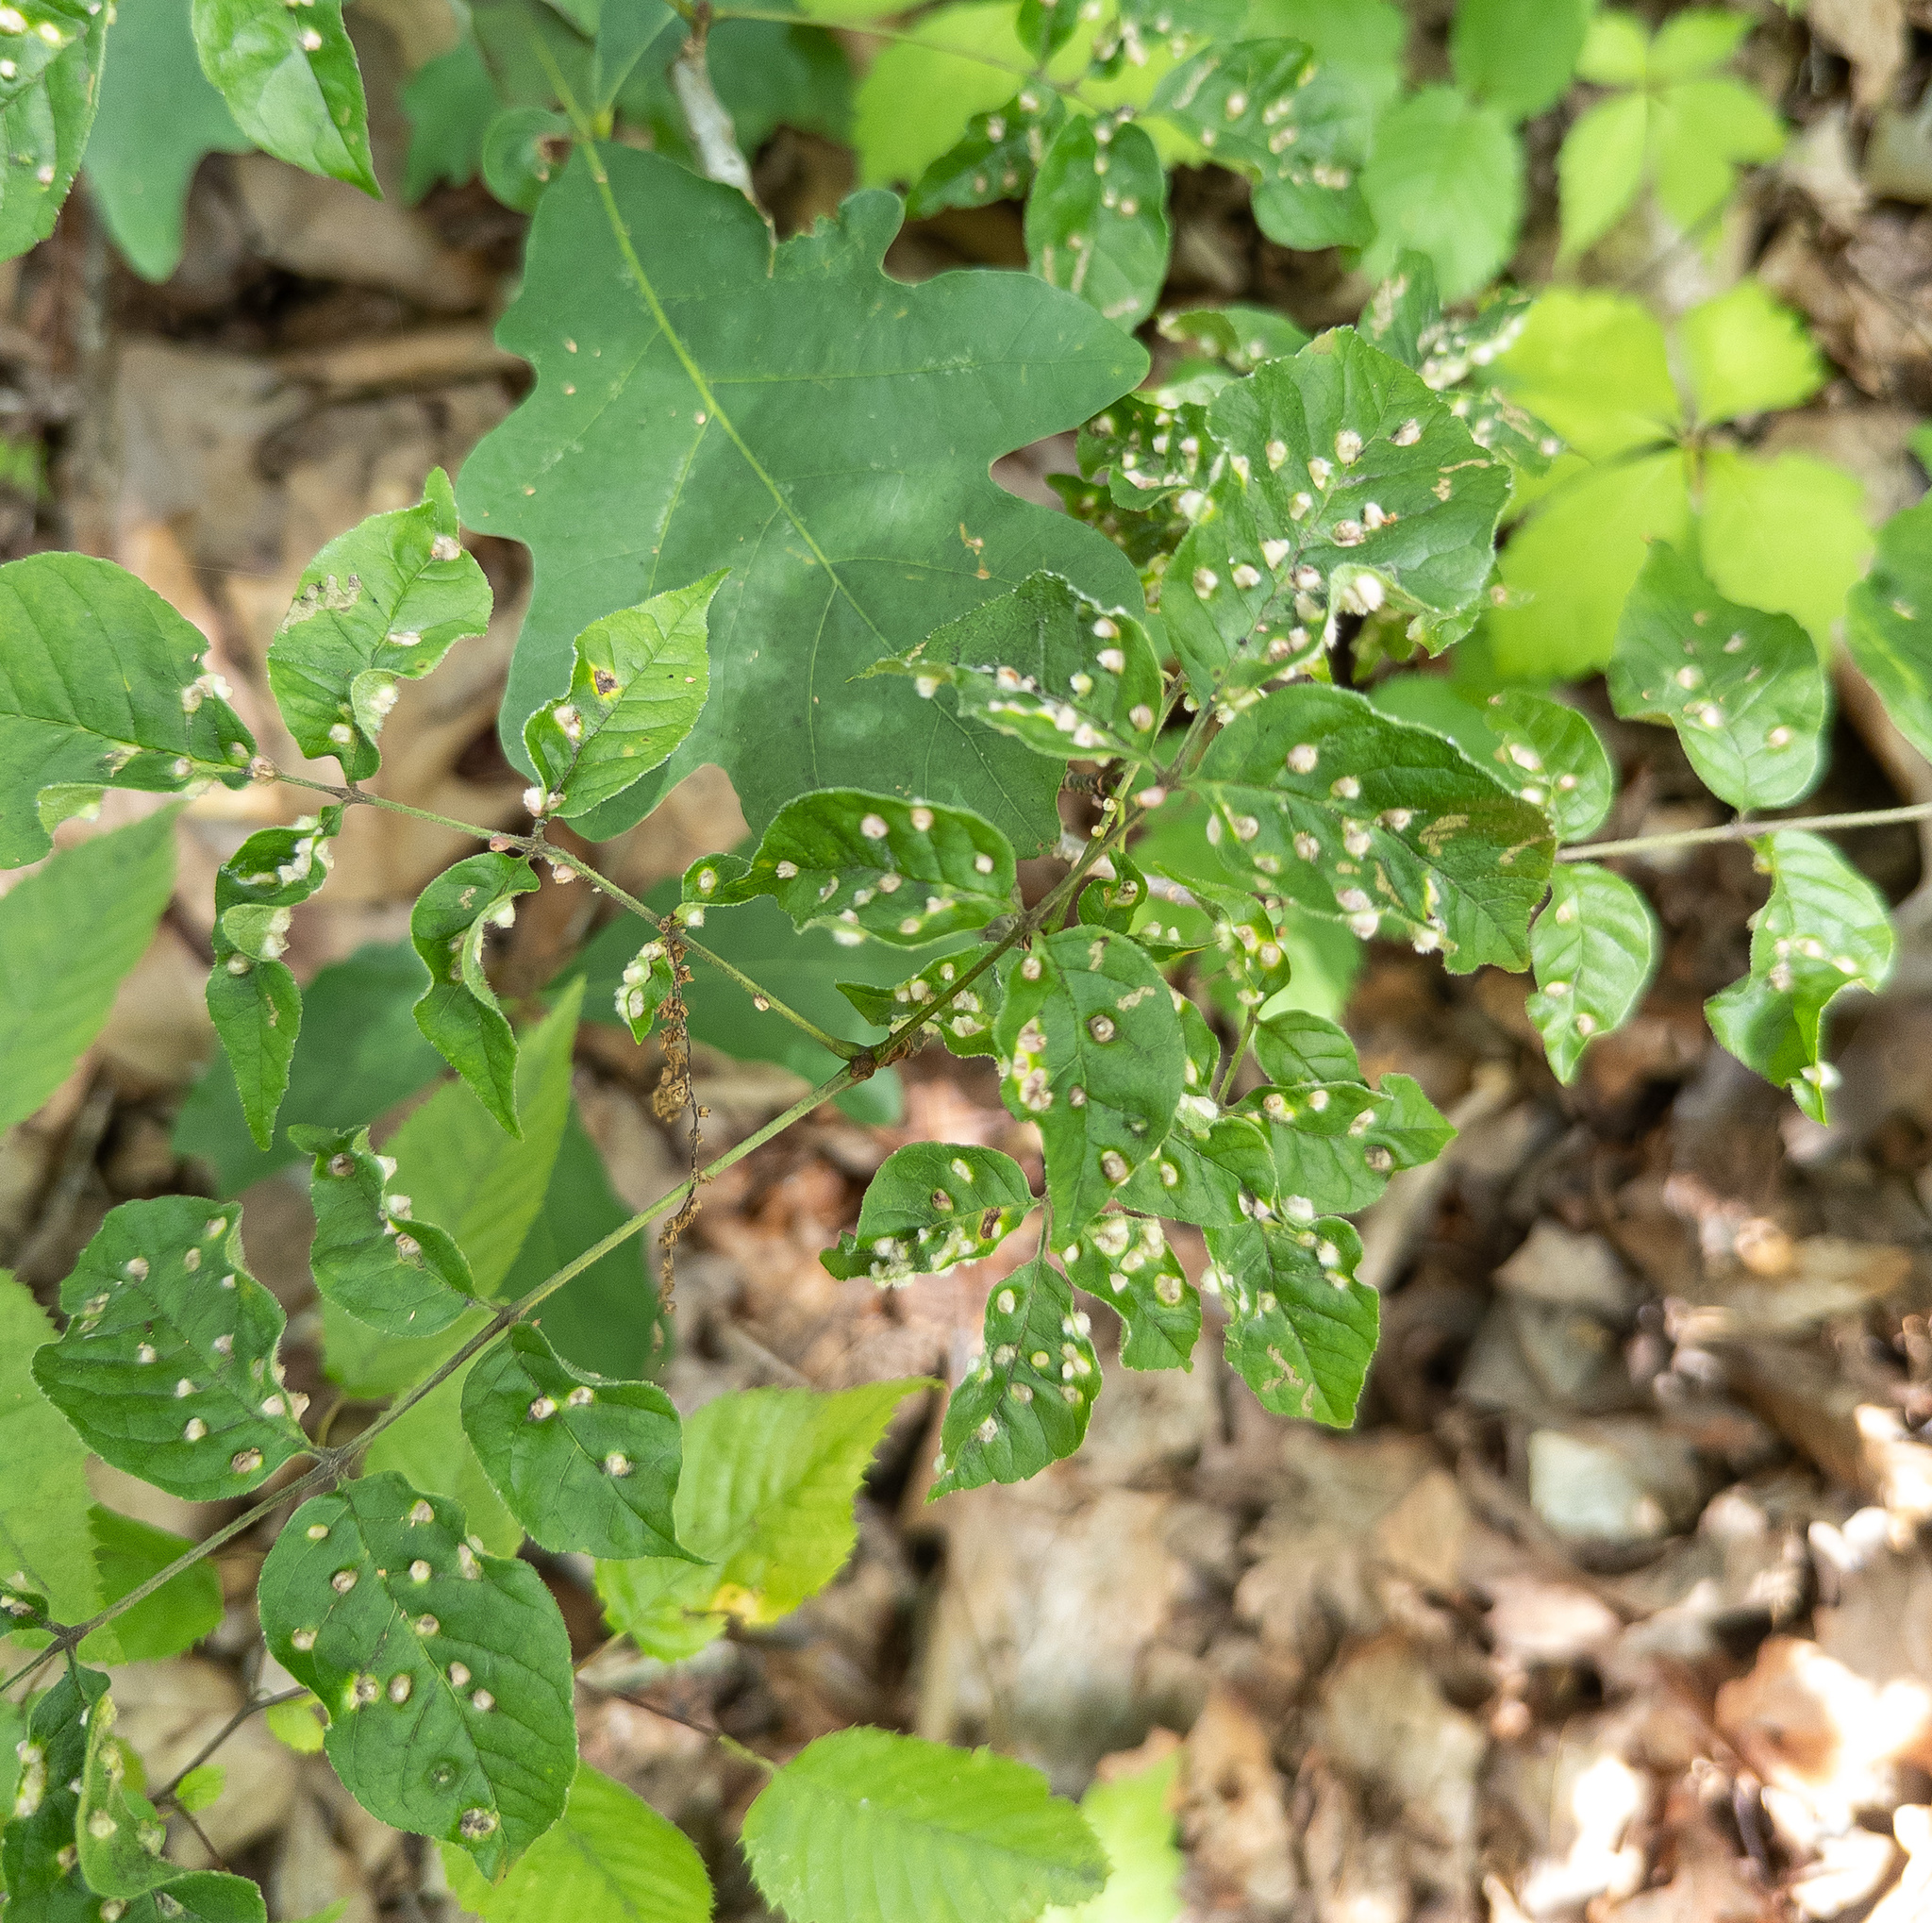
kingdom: Animalia
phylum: Arthropoda
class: Arachnida
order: Trombidiformes
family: Eriophyidae
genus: Aceria
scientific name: Aceria fraxinicola
